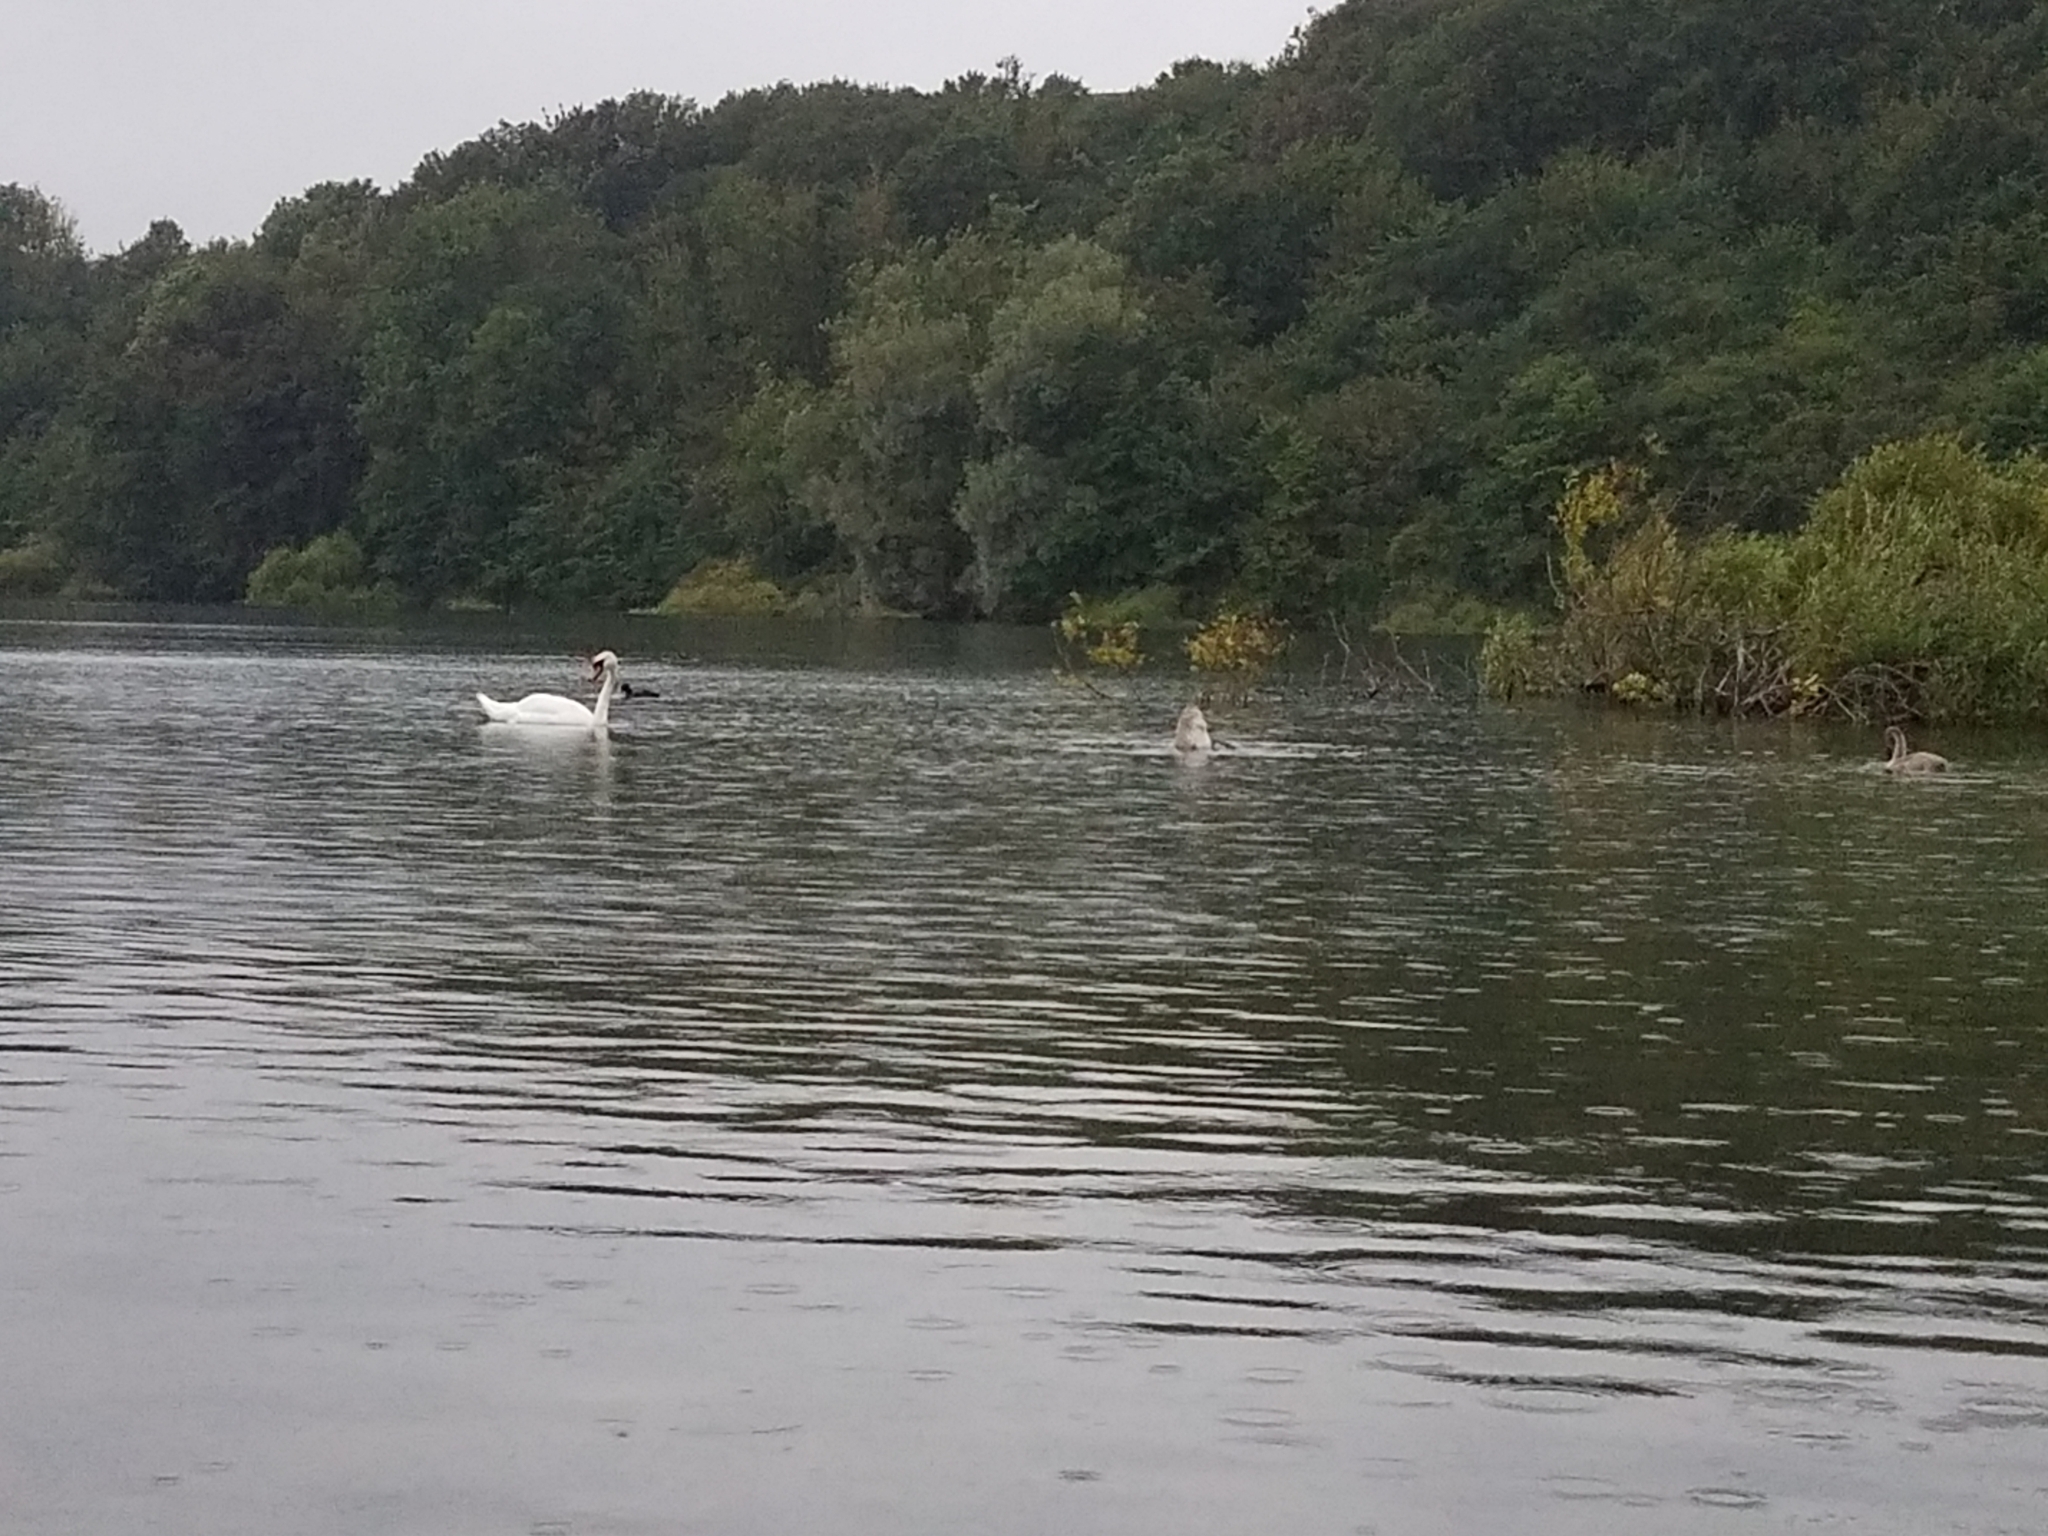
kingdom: Animalia
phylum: Chordata
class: Aves
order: Anseriformes
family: Anatidae
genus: Cygnus
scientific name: Cygnus olor
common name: Mute swan
